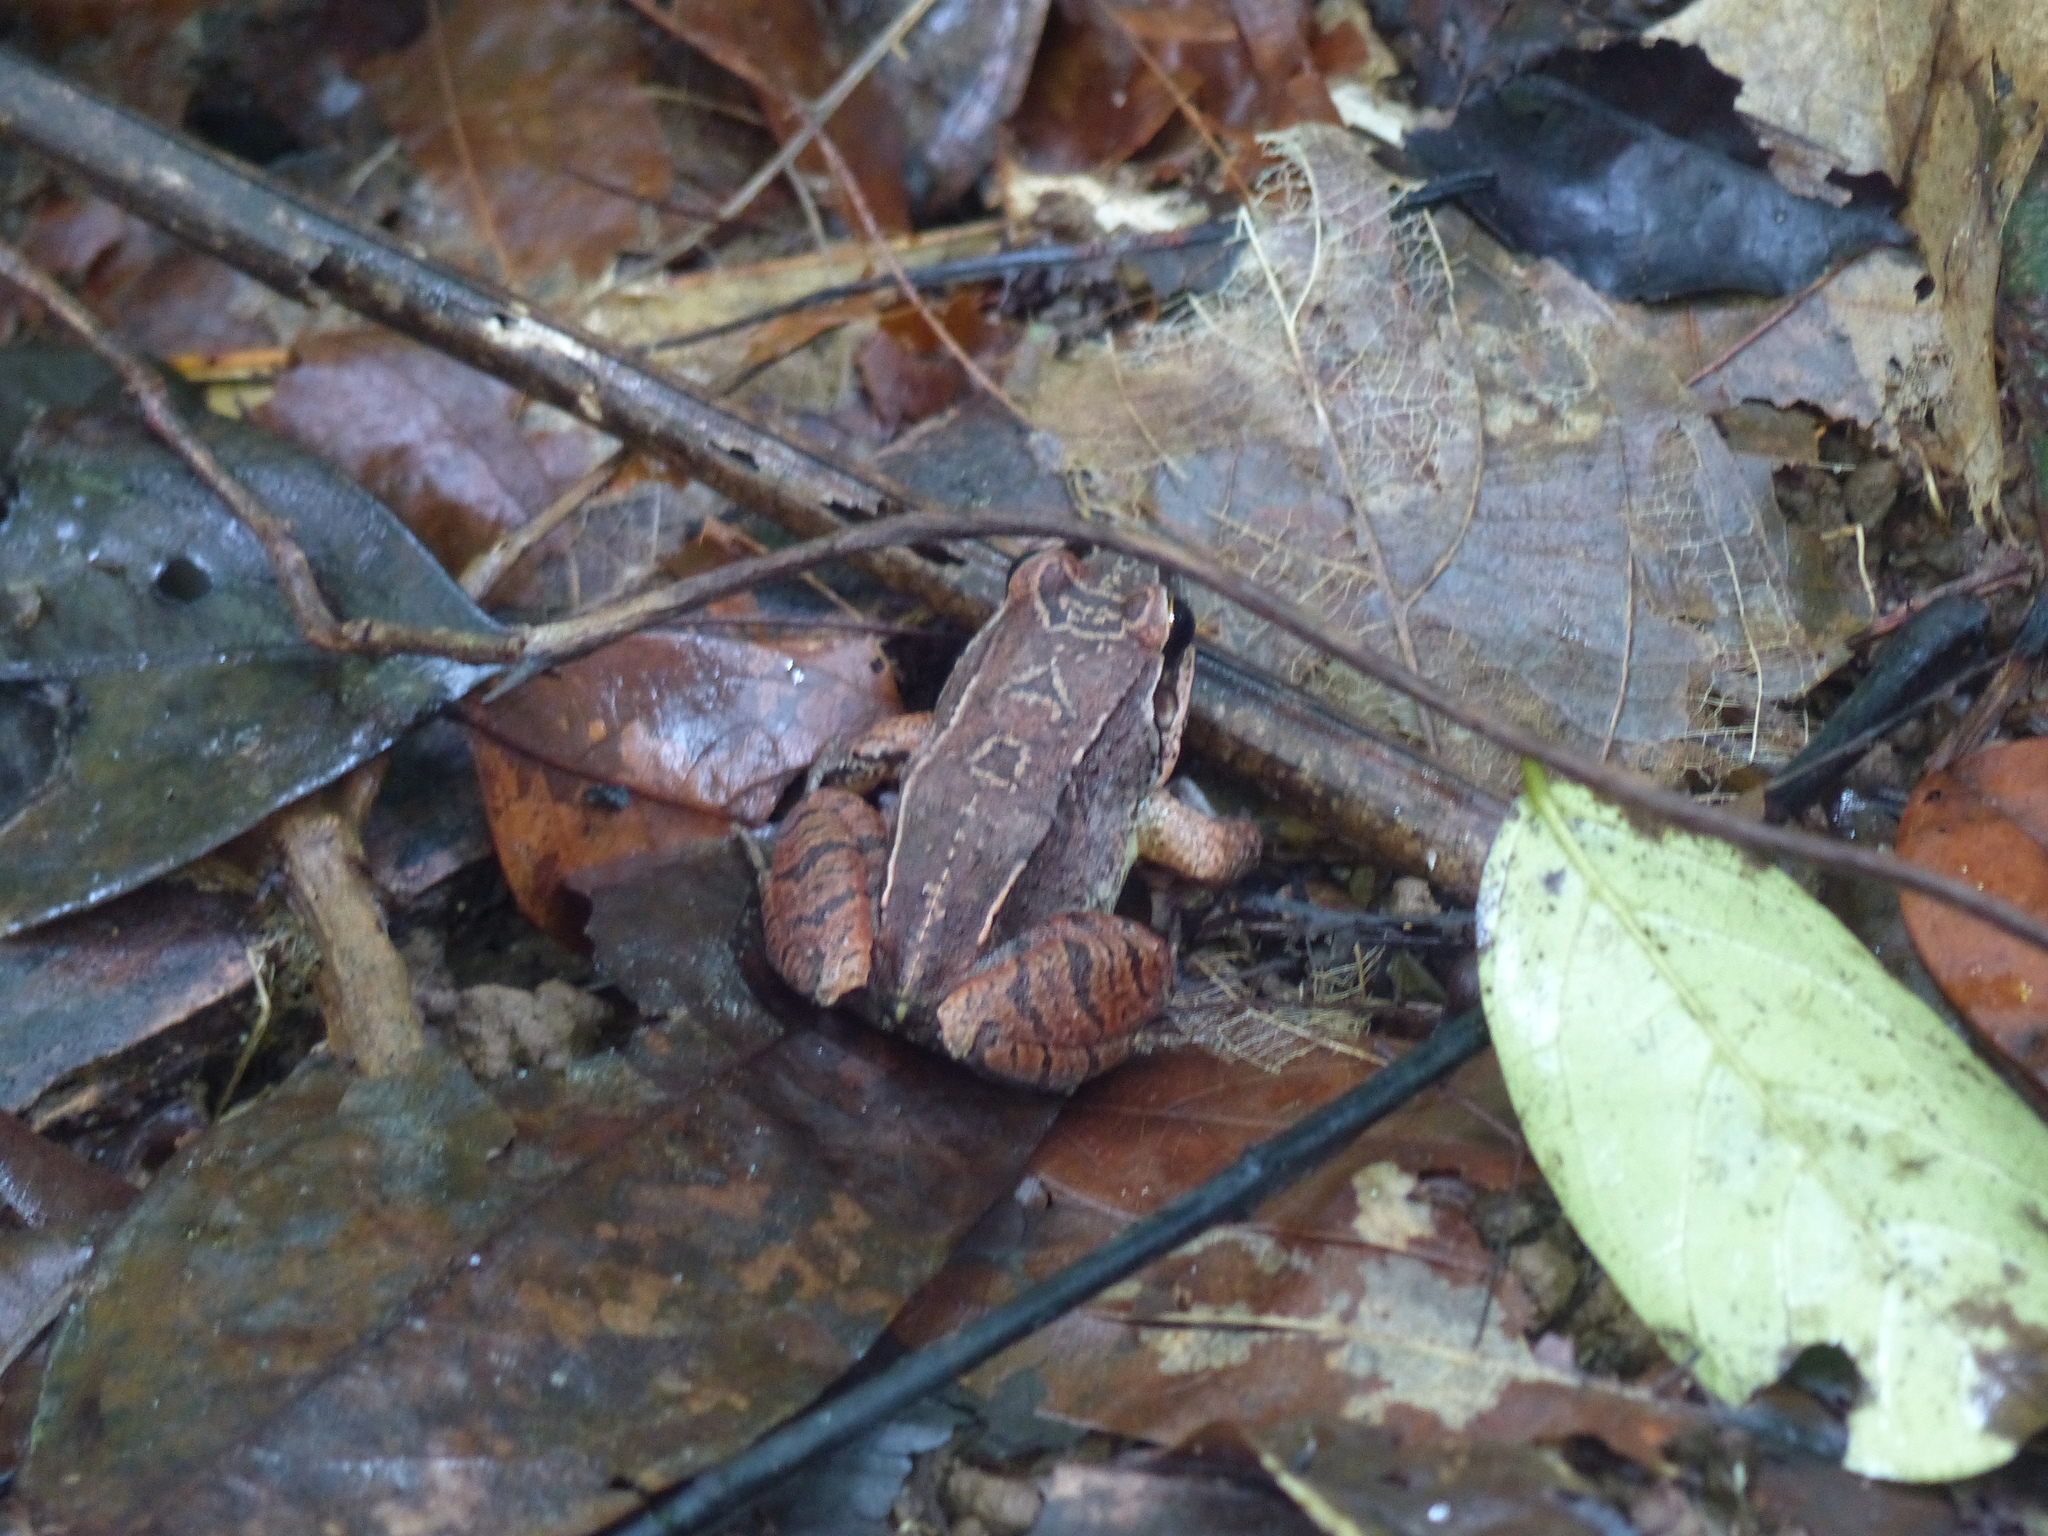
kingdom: Animalia
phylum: Chordata
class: Amphibia
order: Anura
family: Leptodactylidae
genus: Leptodactylus
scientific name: Leptodactylus mystaceus
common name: Amazonian white-lipped frog
